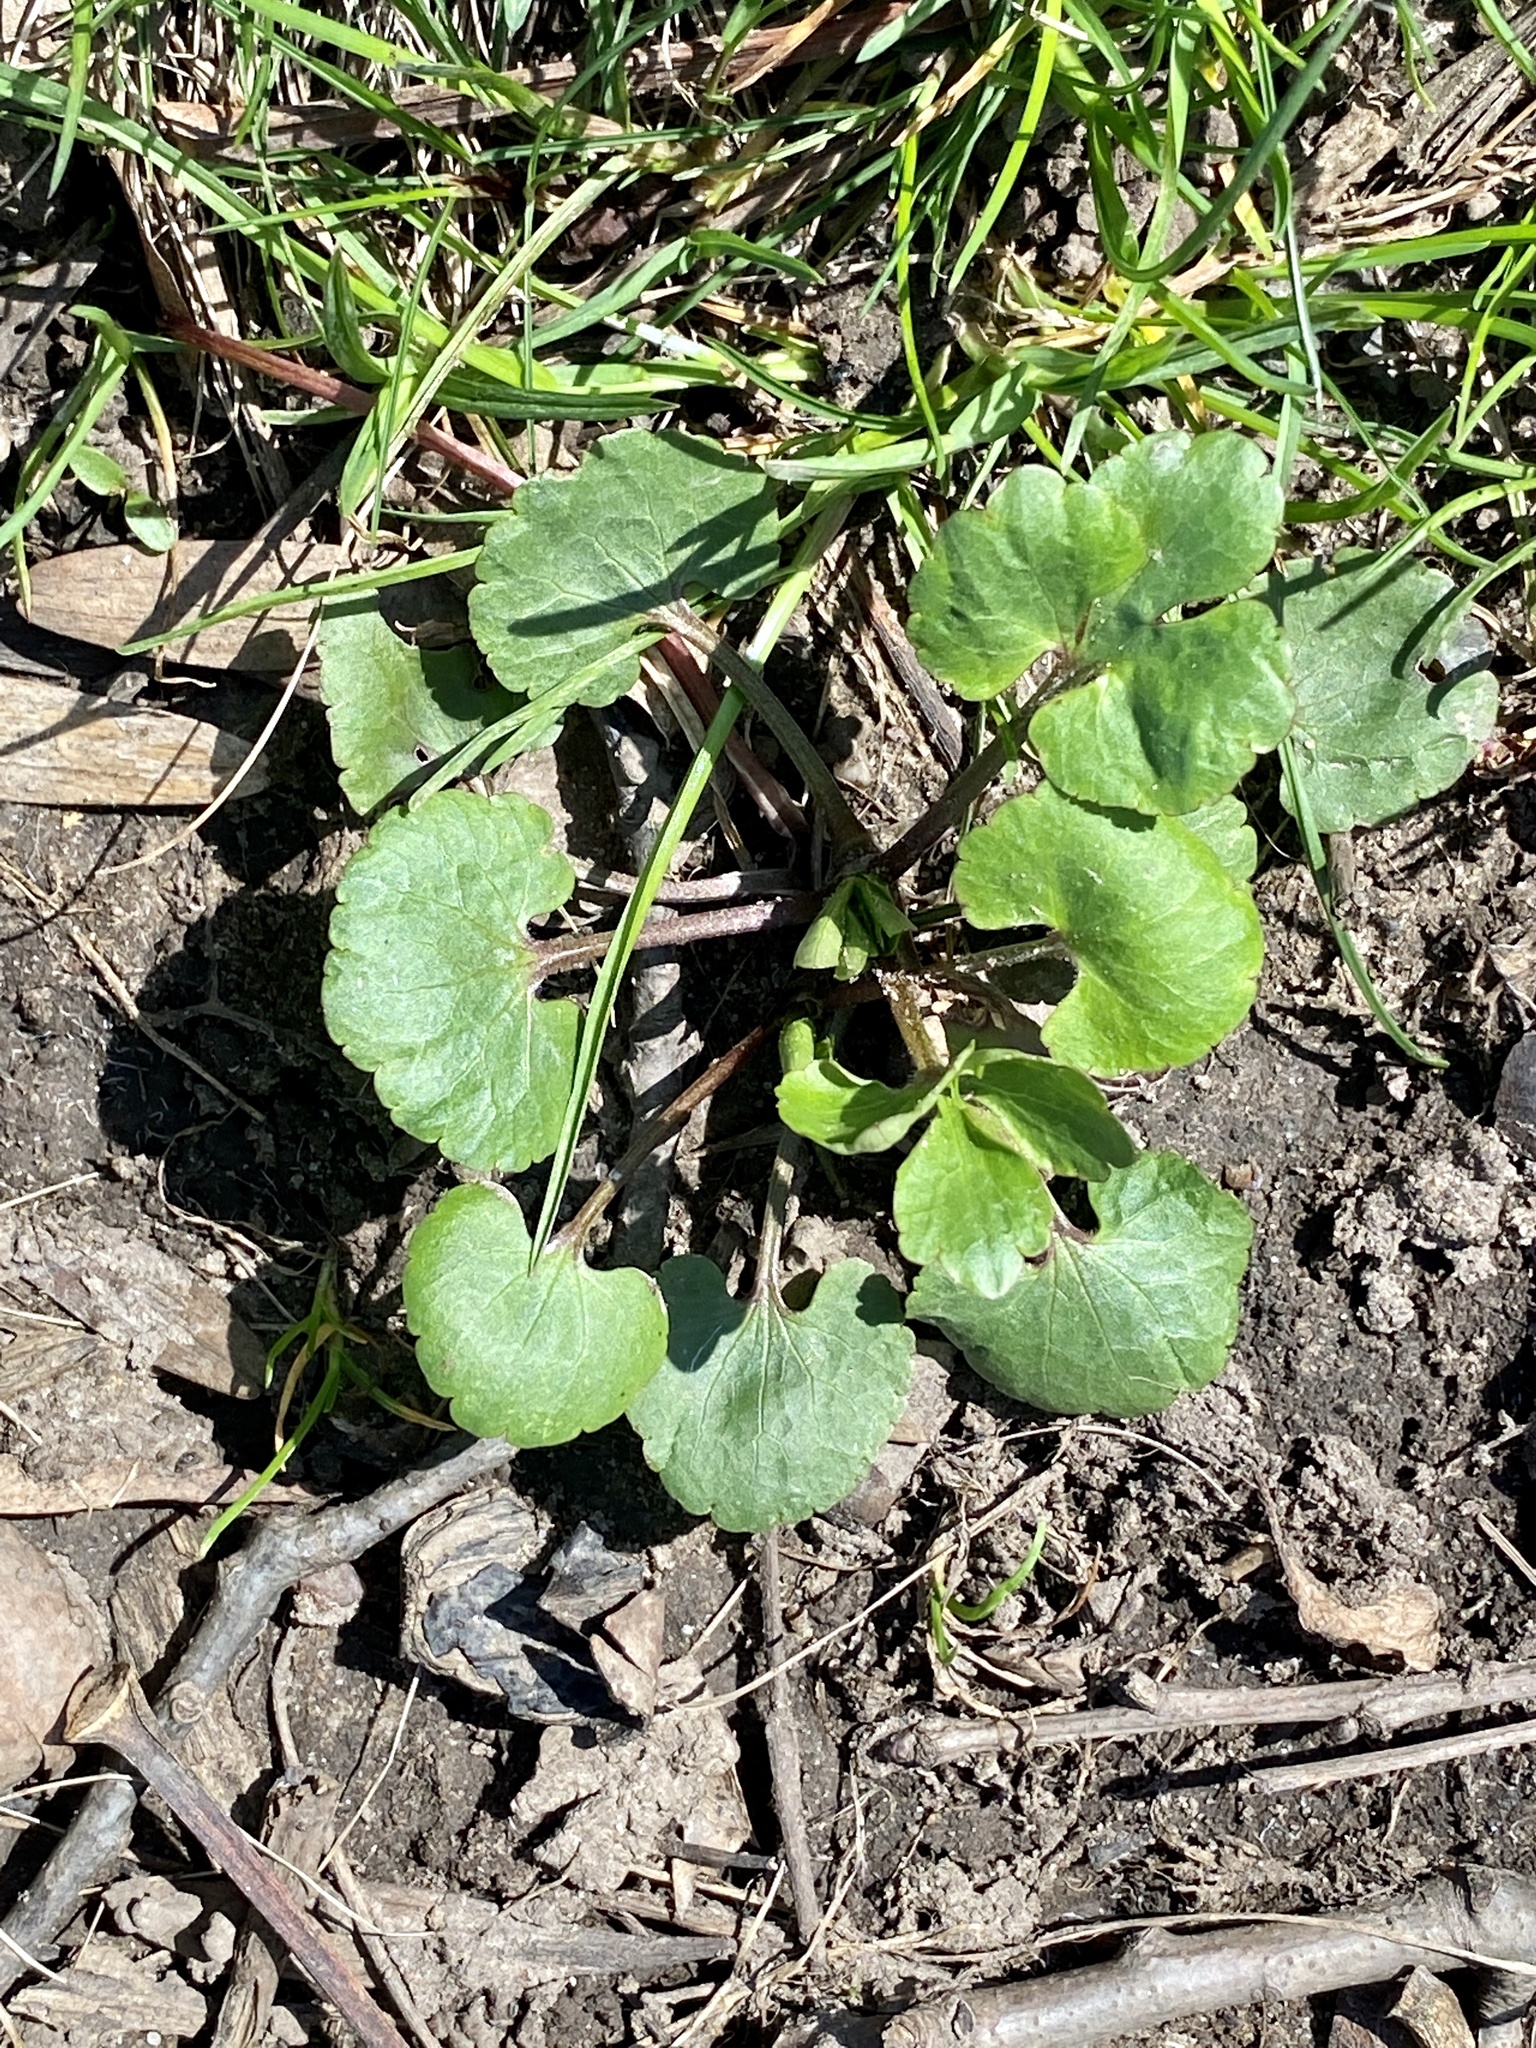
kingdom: Plantae
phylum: Tracheophyta
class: Magnoliopsida
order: Ranunculales
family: Ranunculaceae
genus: Ranunculus
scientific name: Ranunculus abortivus
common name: Early wood buttercup
